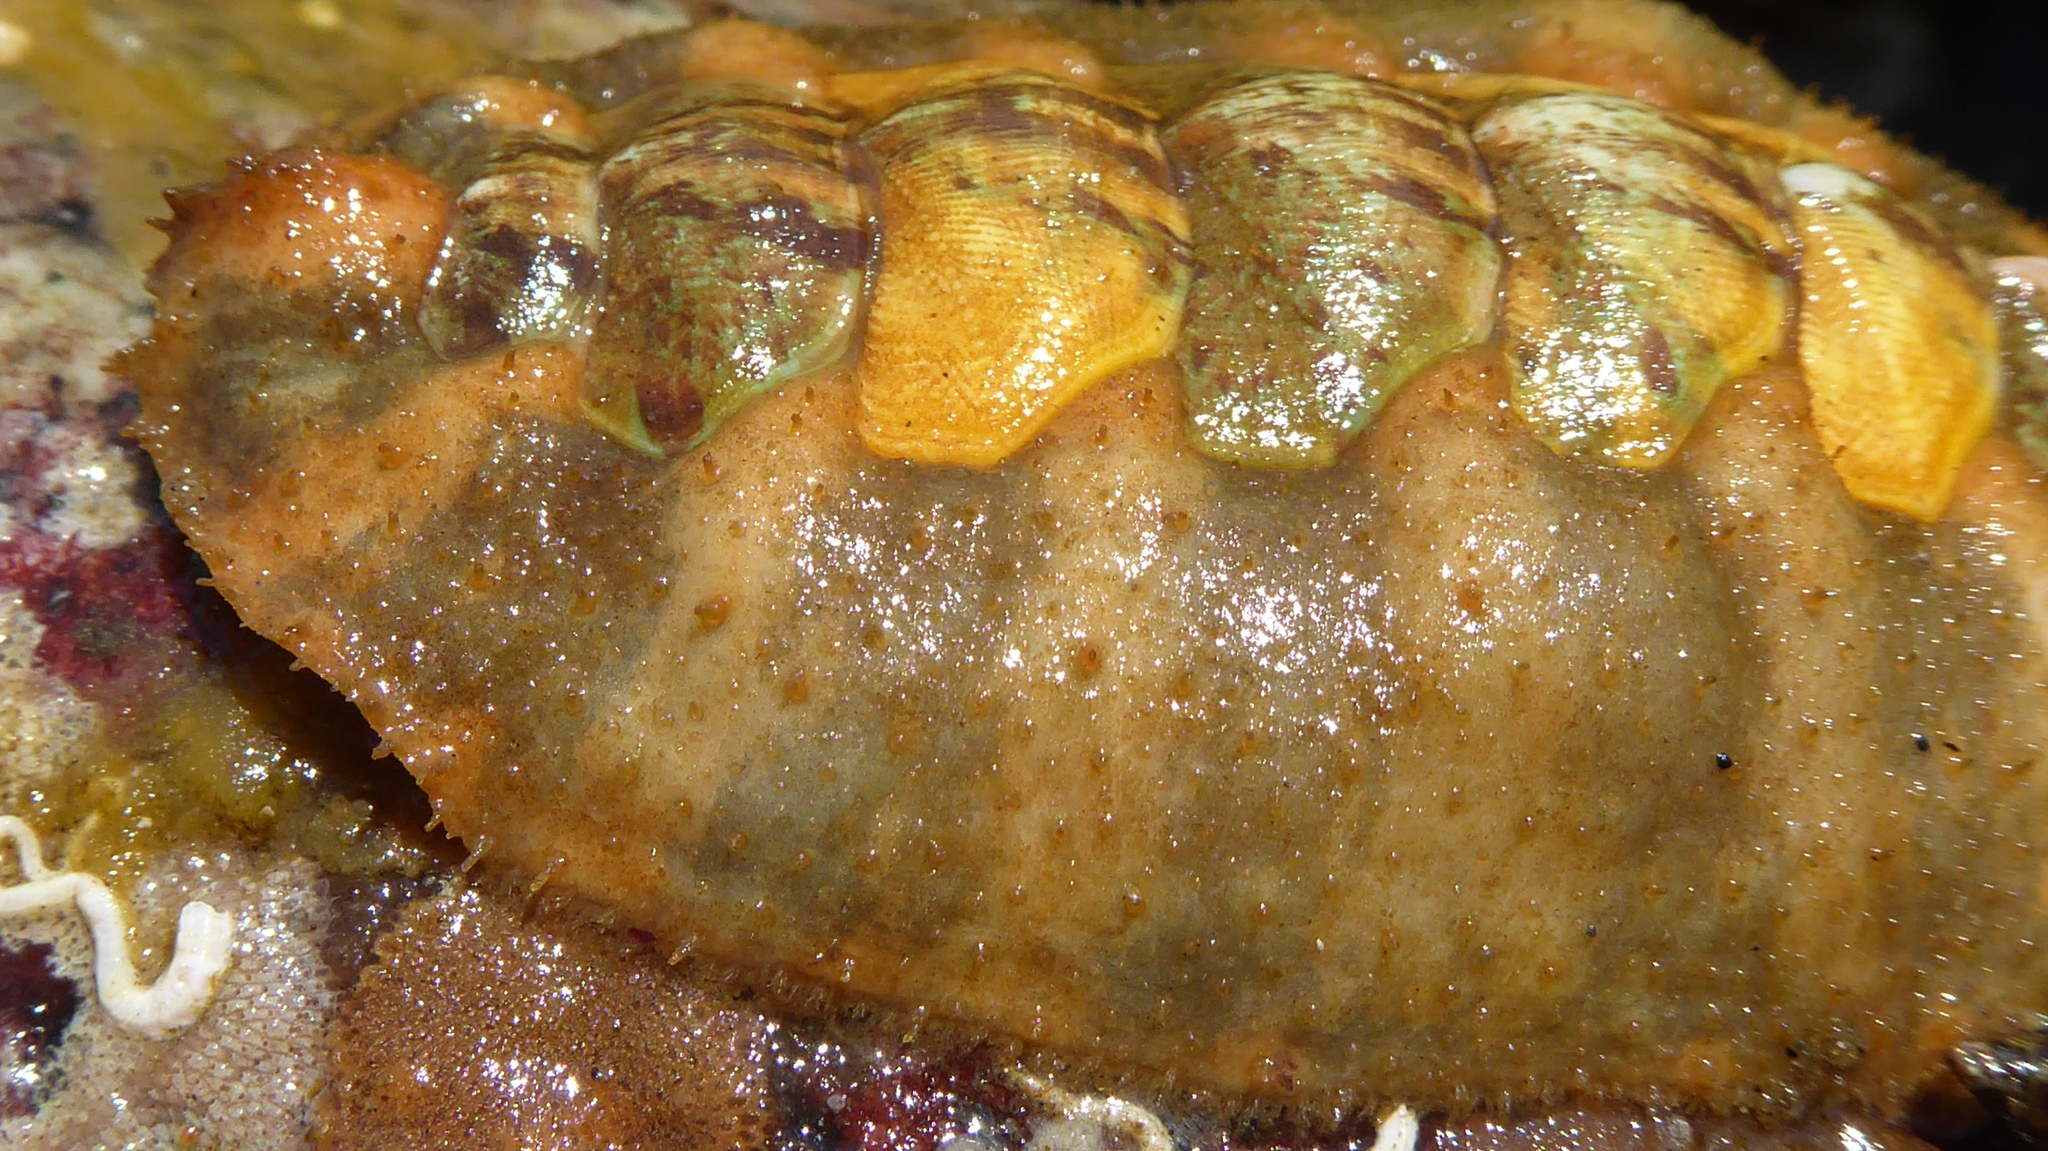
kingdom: Animalia
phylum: Mollusca
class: Polyplacophora
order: Chitonida
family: Mopaliidae
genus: Mopalia
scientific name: Mopalia ciliata
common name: Hairy chiton
